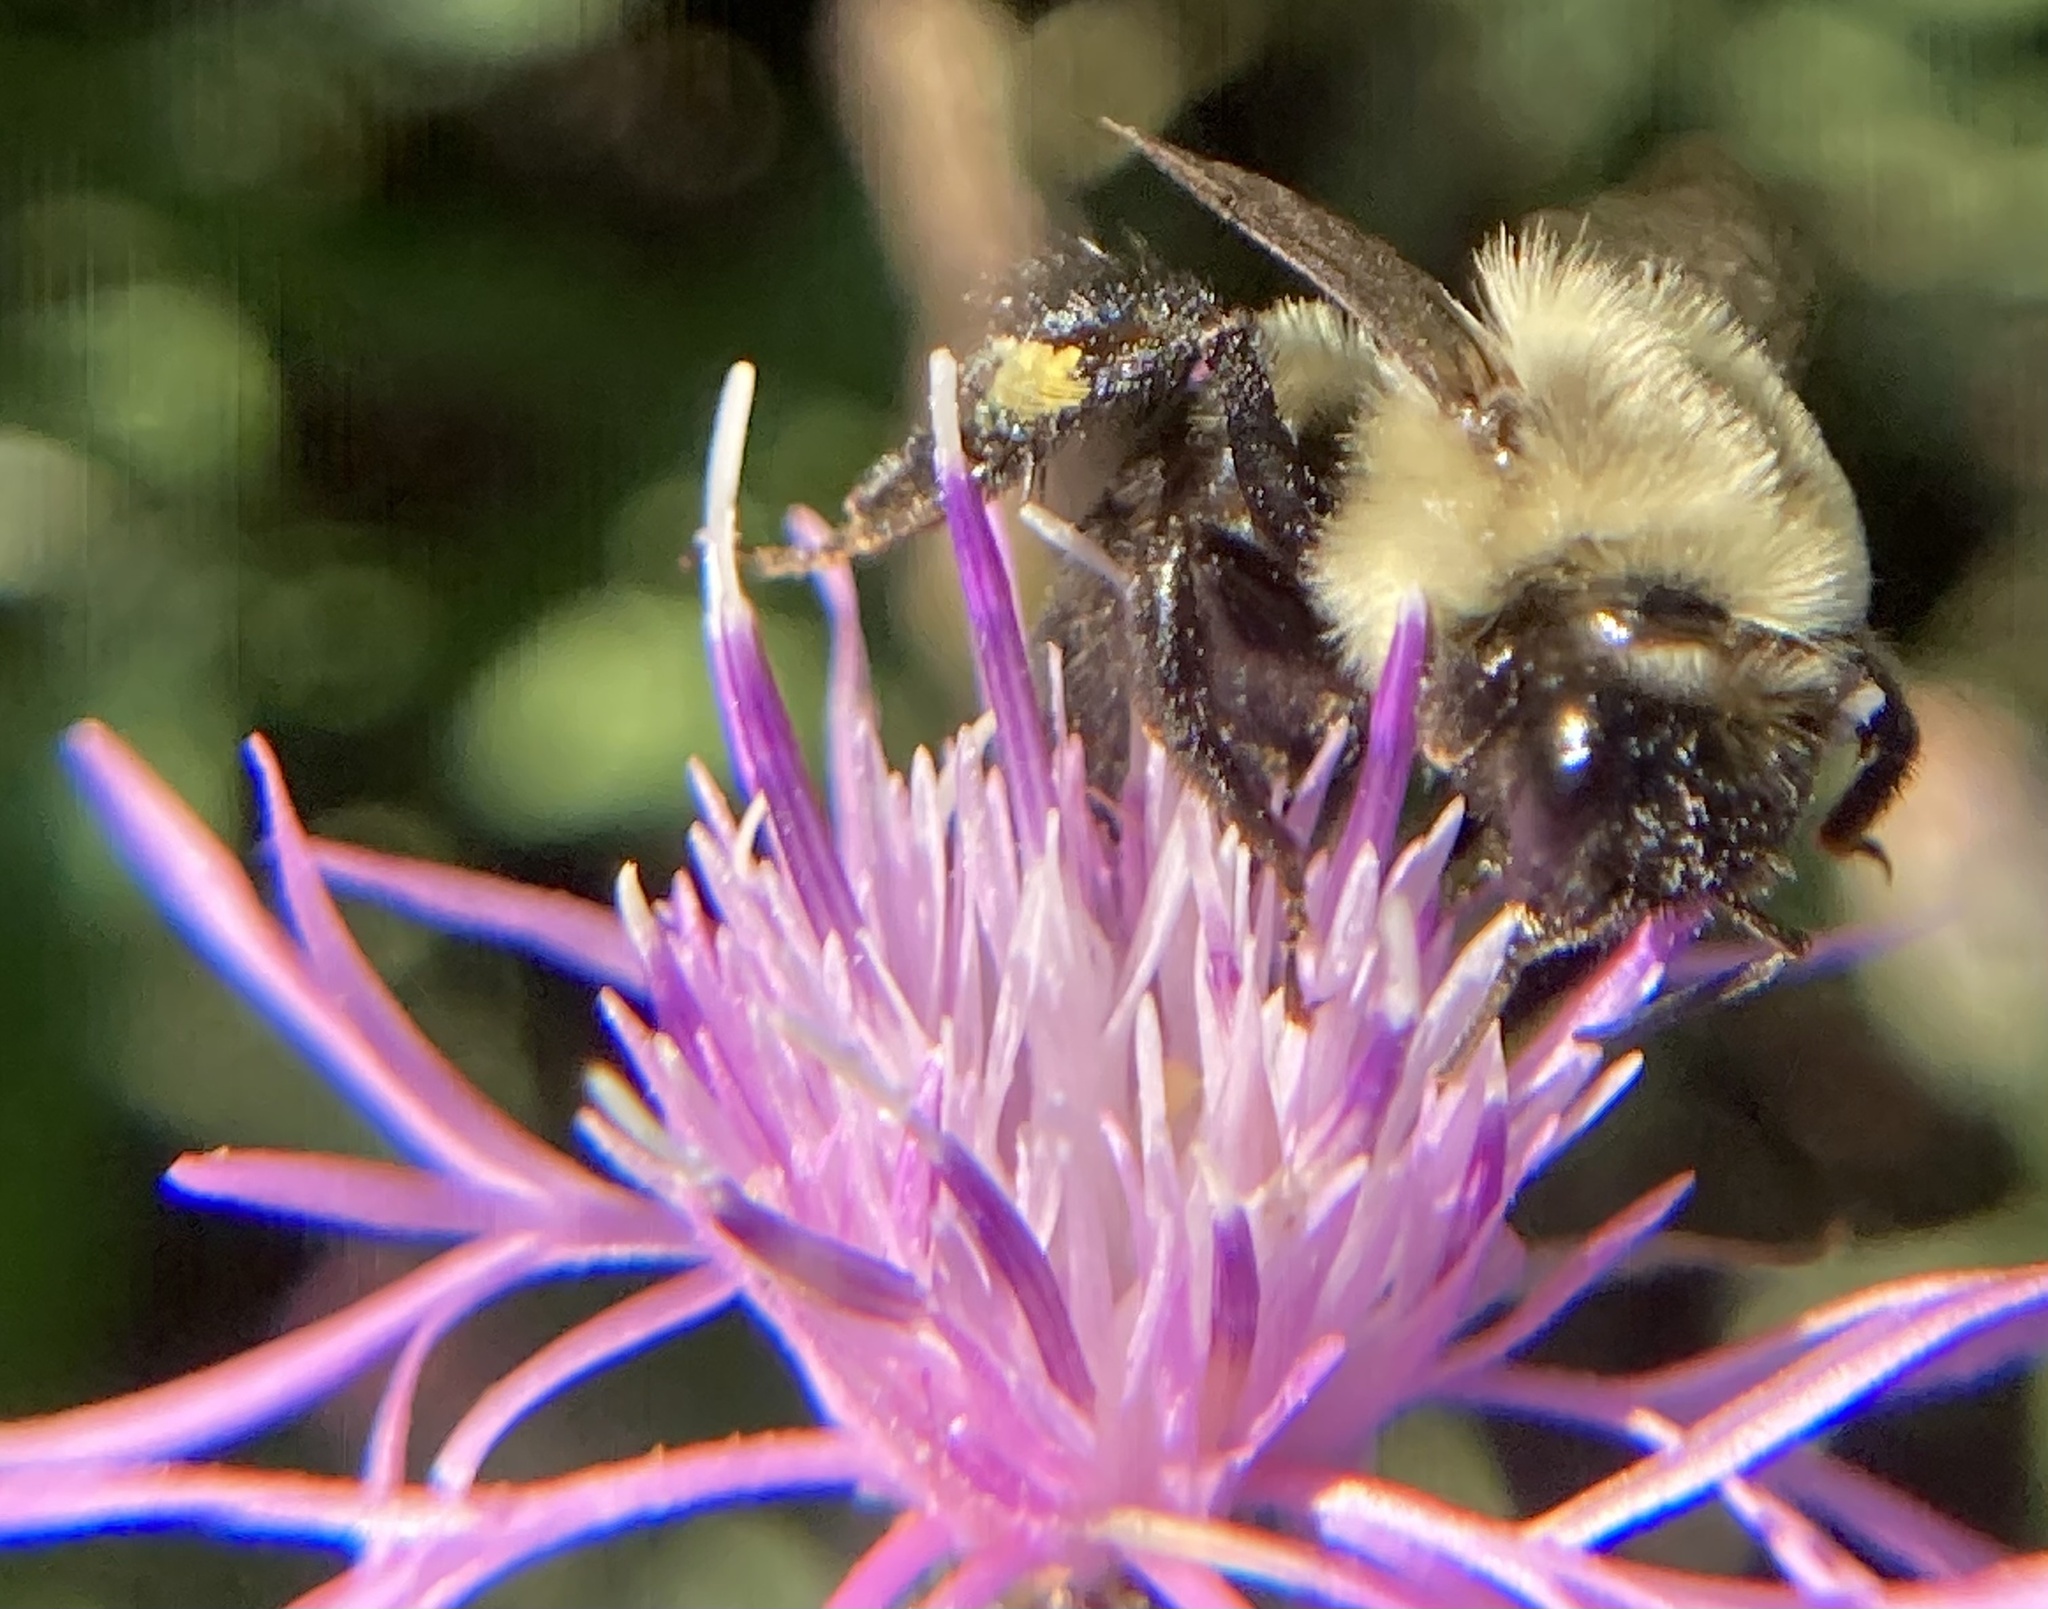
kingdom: Animalia
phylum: Arthropoda
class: Insecta
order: Hymenoptera
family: Apidae
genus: Bombus
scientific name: Bombus impatiens
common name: Common eastern bumble bee
